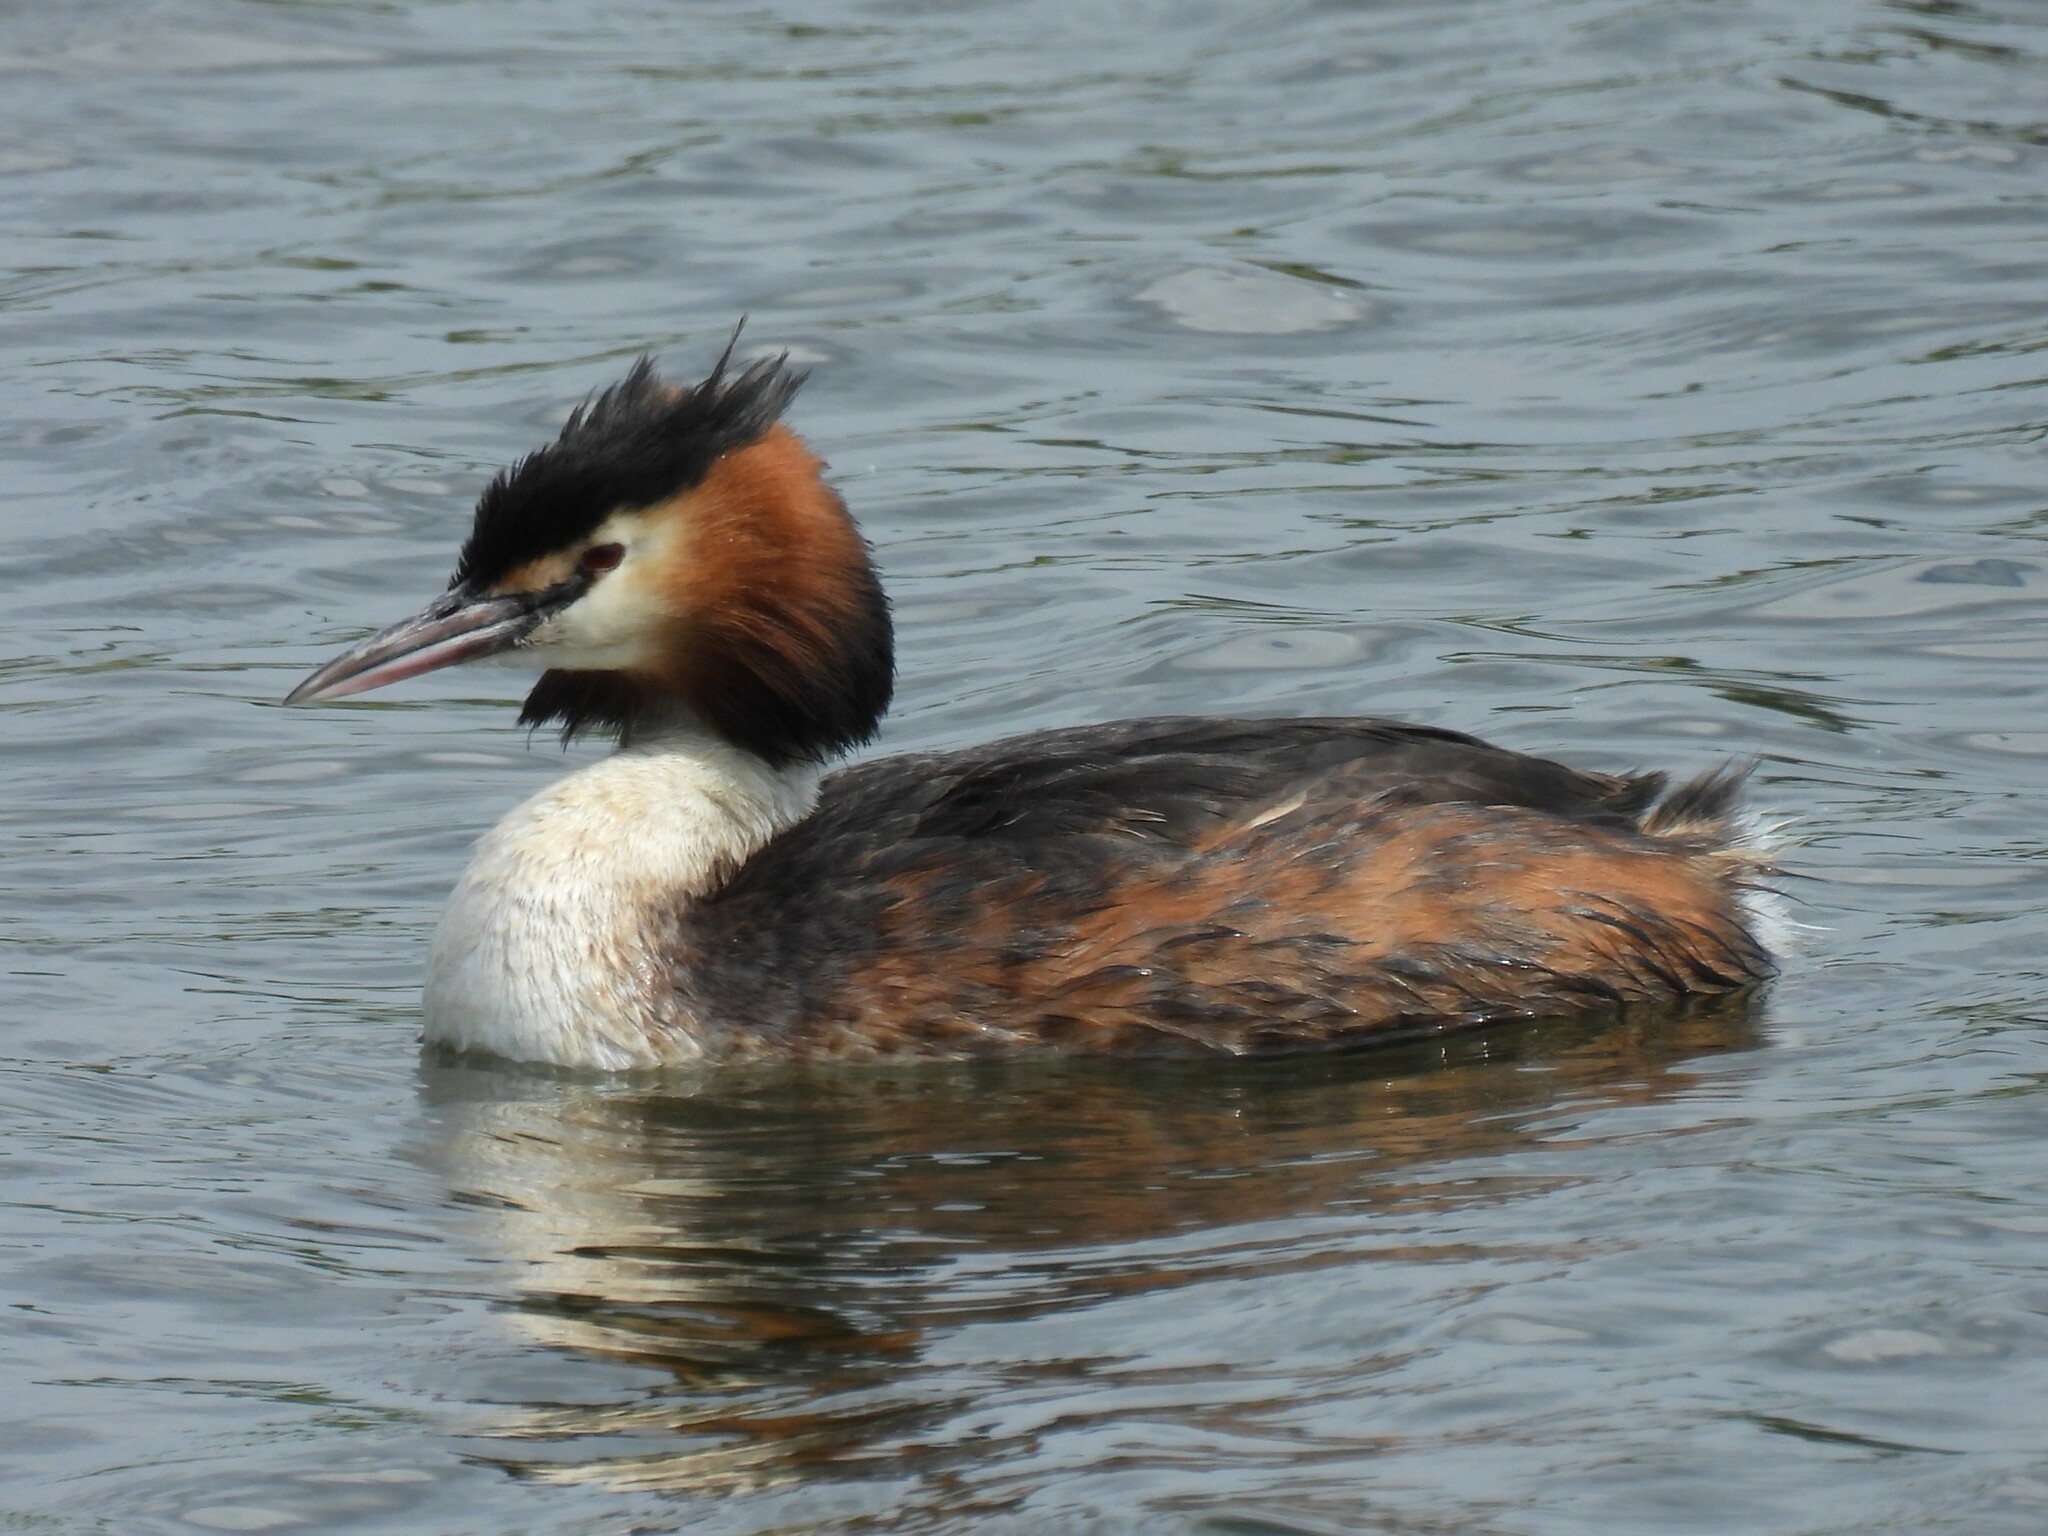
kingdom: Animalia
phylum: Chordata
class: Aves
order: Podicipediformes
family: Podicipedidae
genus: Podiceps
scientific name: Podiceps cristatus
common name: Great crested grebe
